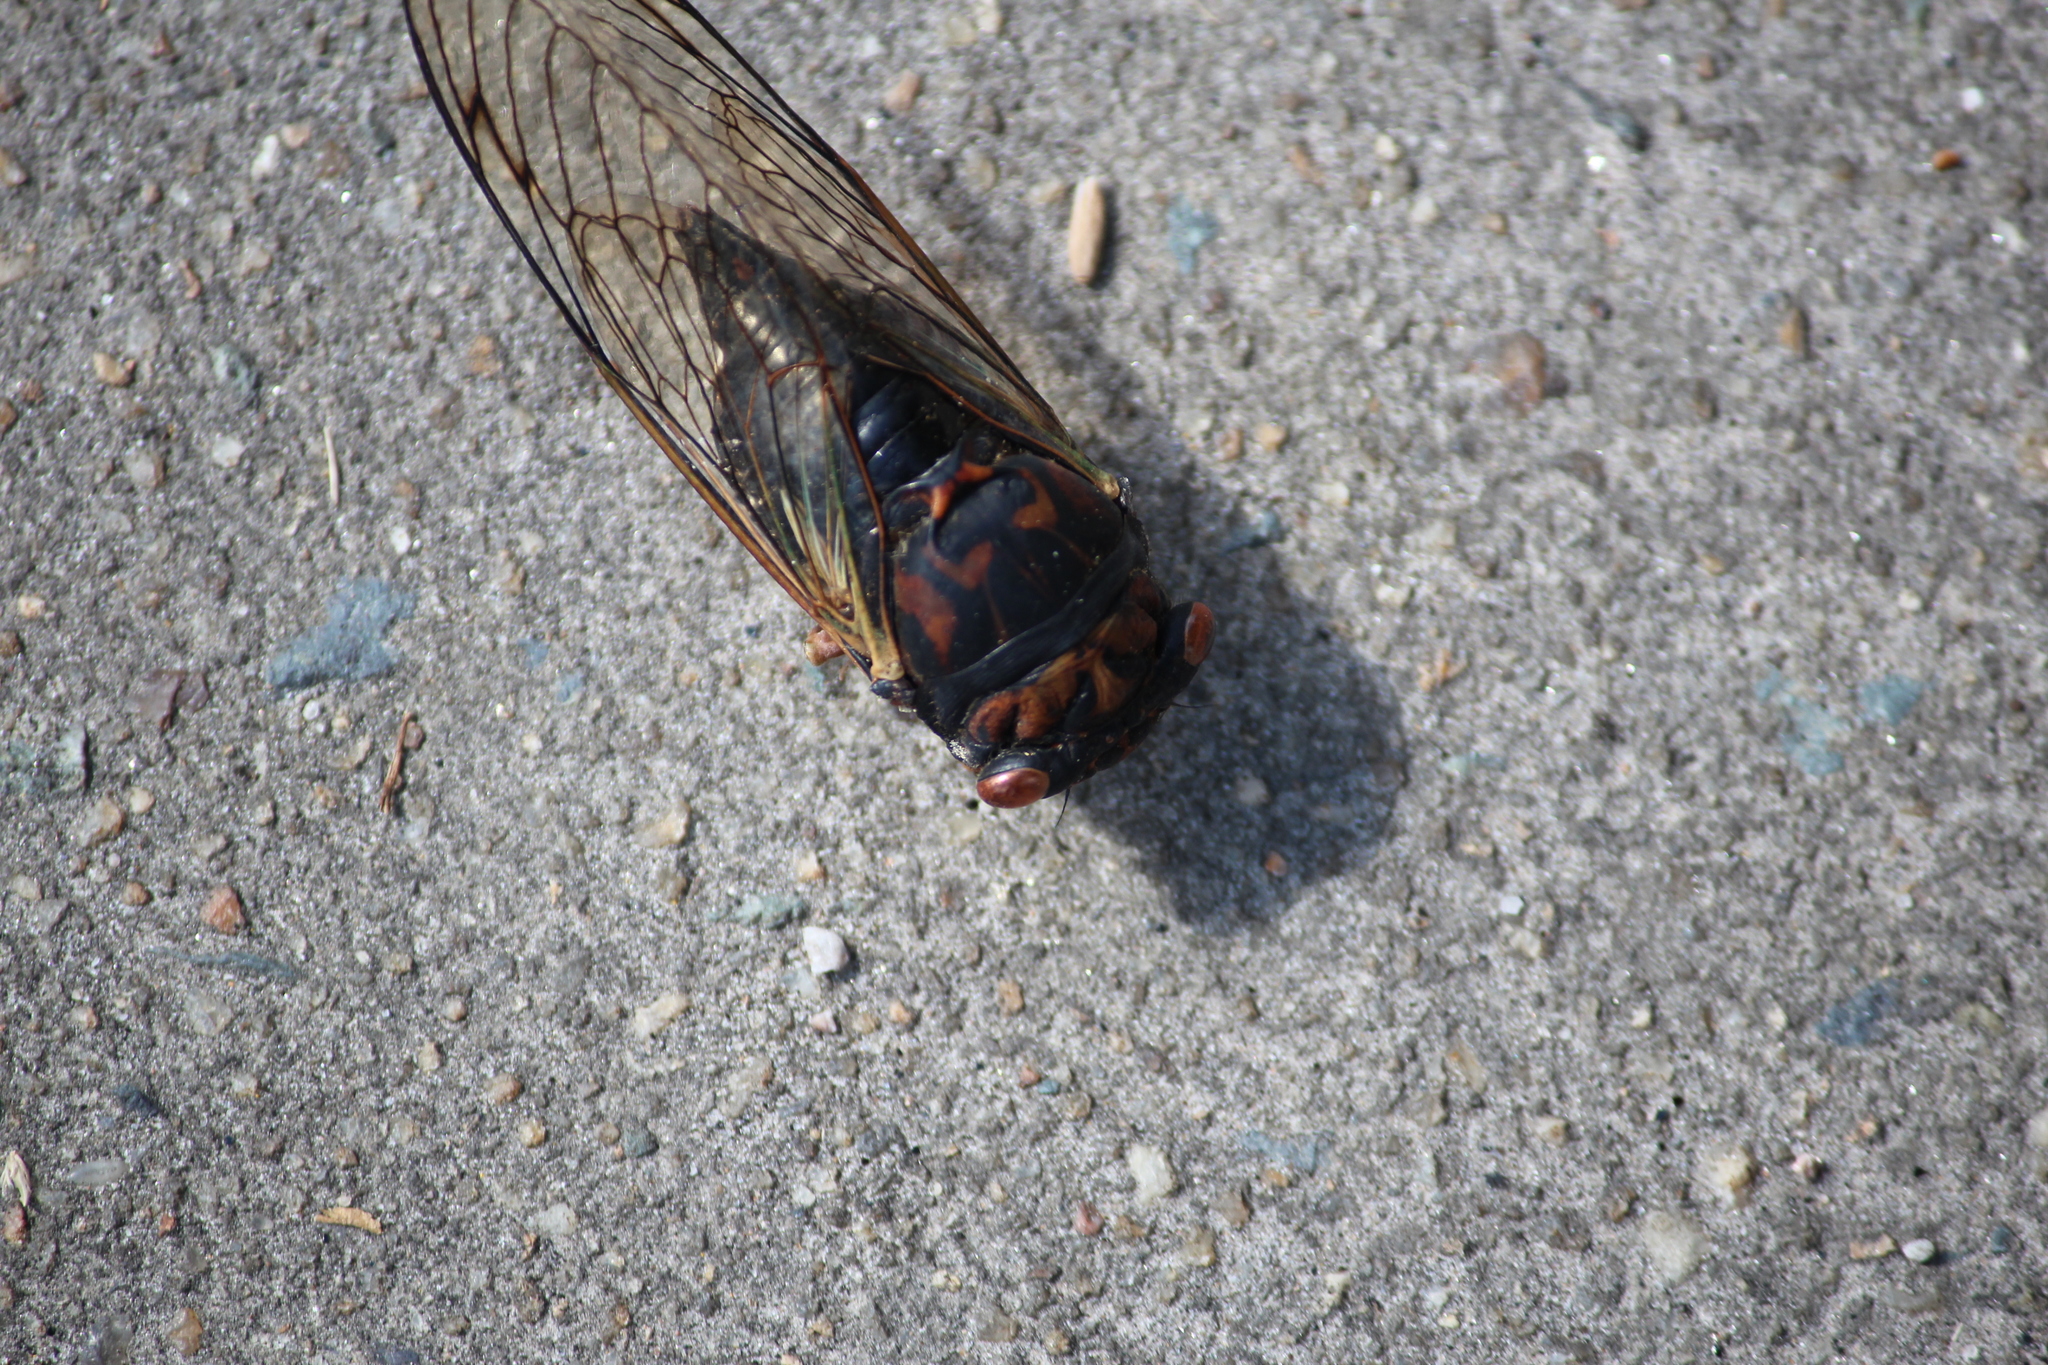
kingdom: Animalia
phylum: Arthropoda
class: Insecta
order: Hemiptera
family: Cicadidae
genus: Neotibicen
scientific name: Neotibicen lyricen
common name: Lyric cicada
